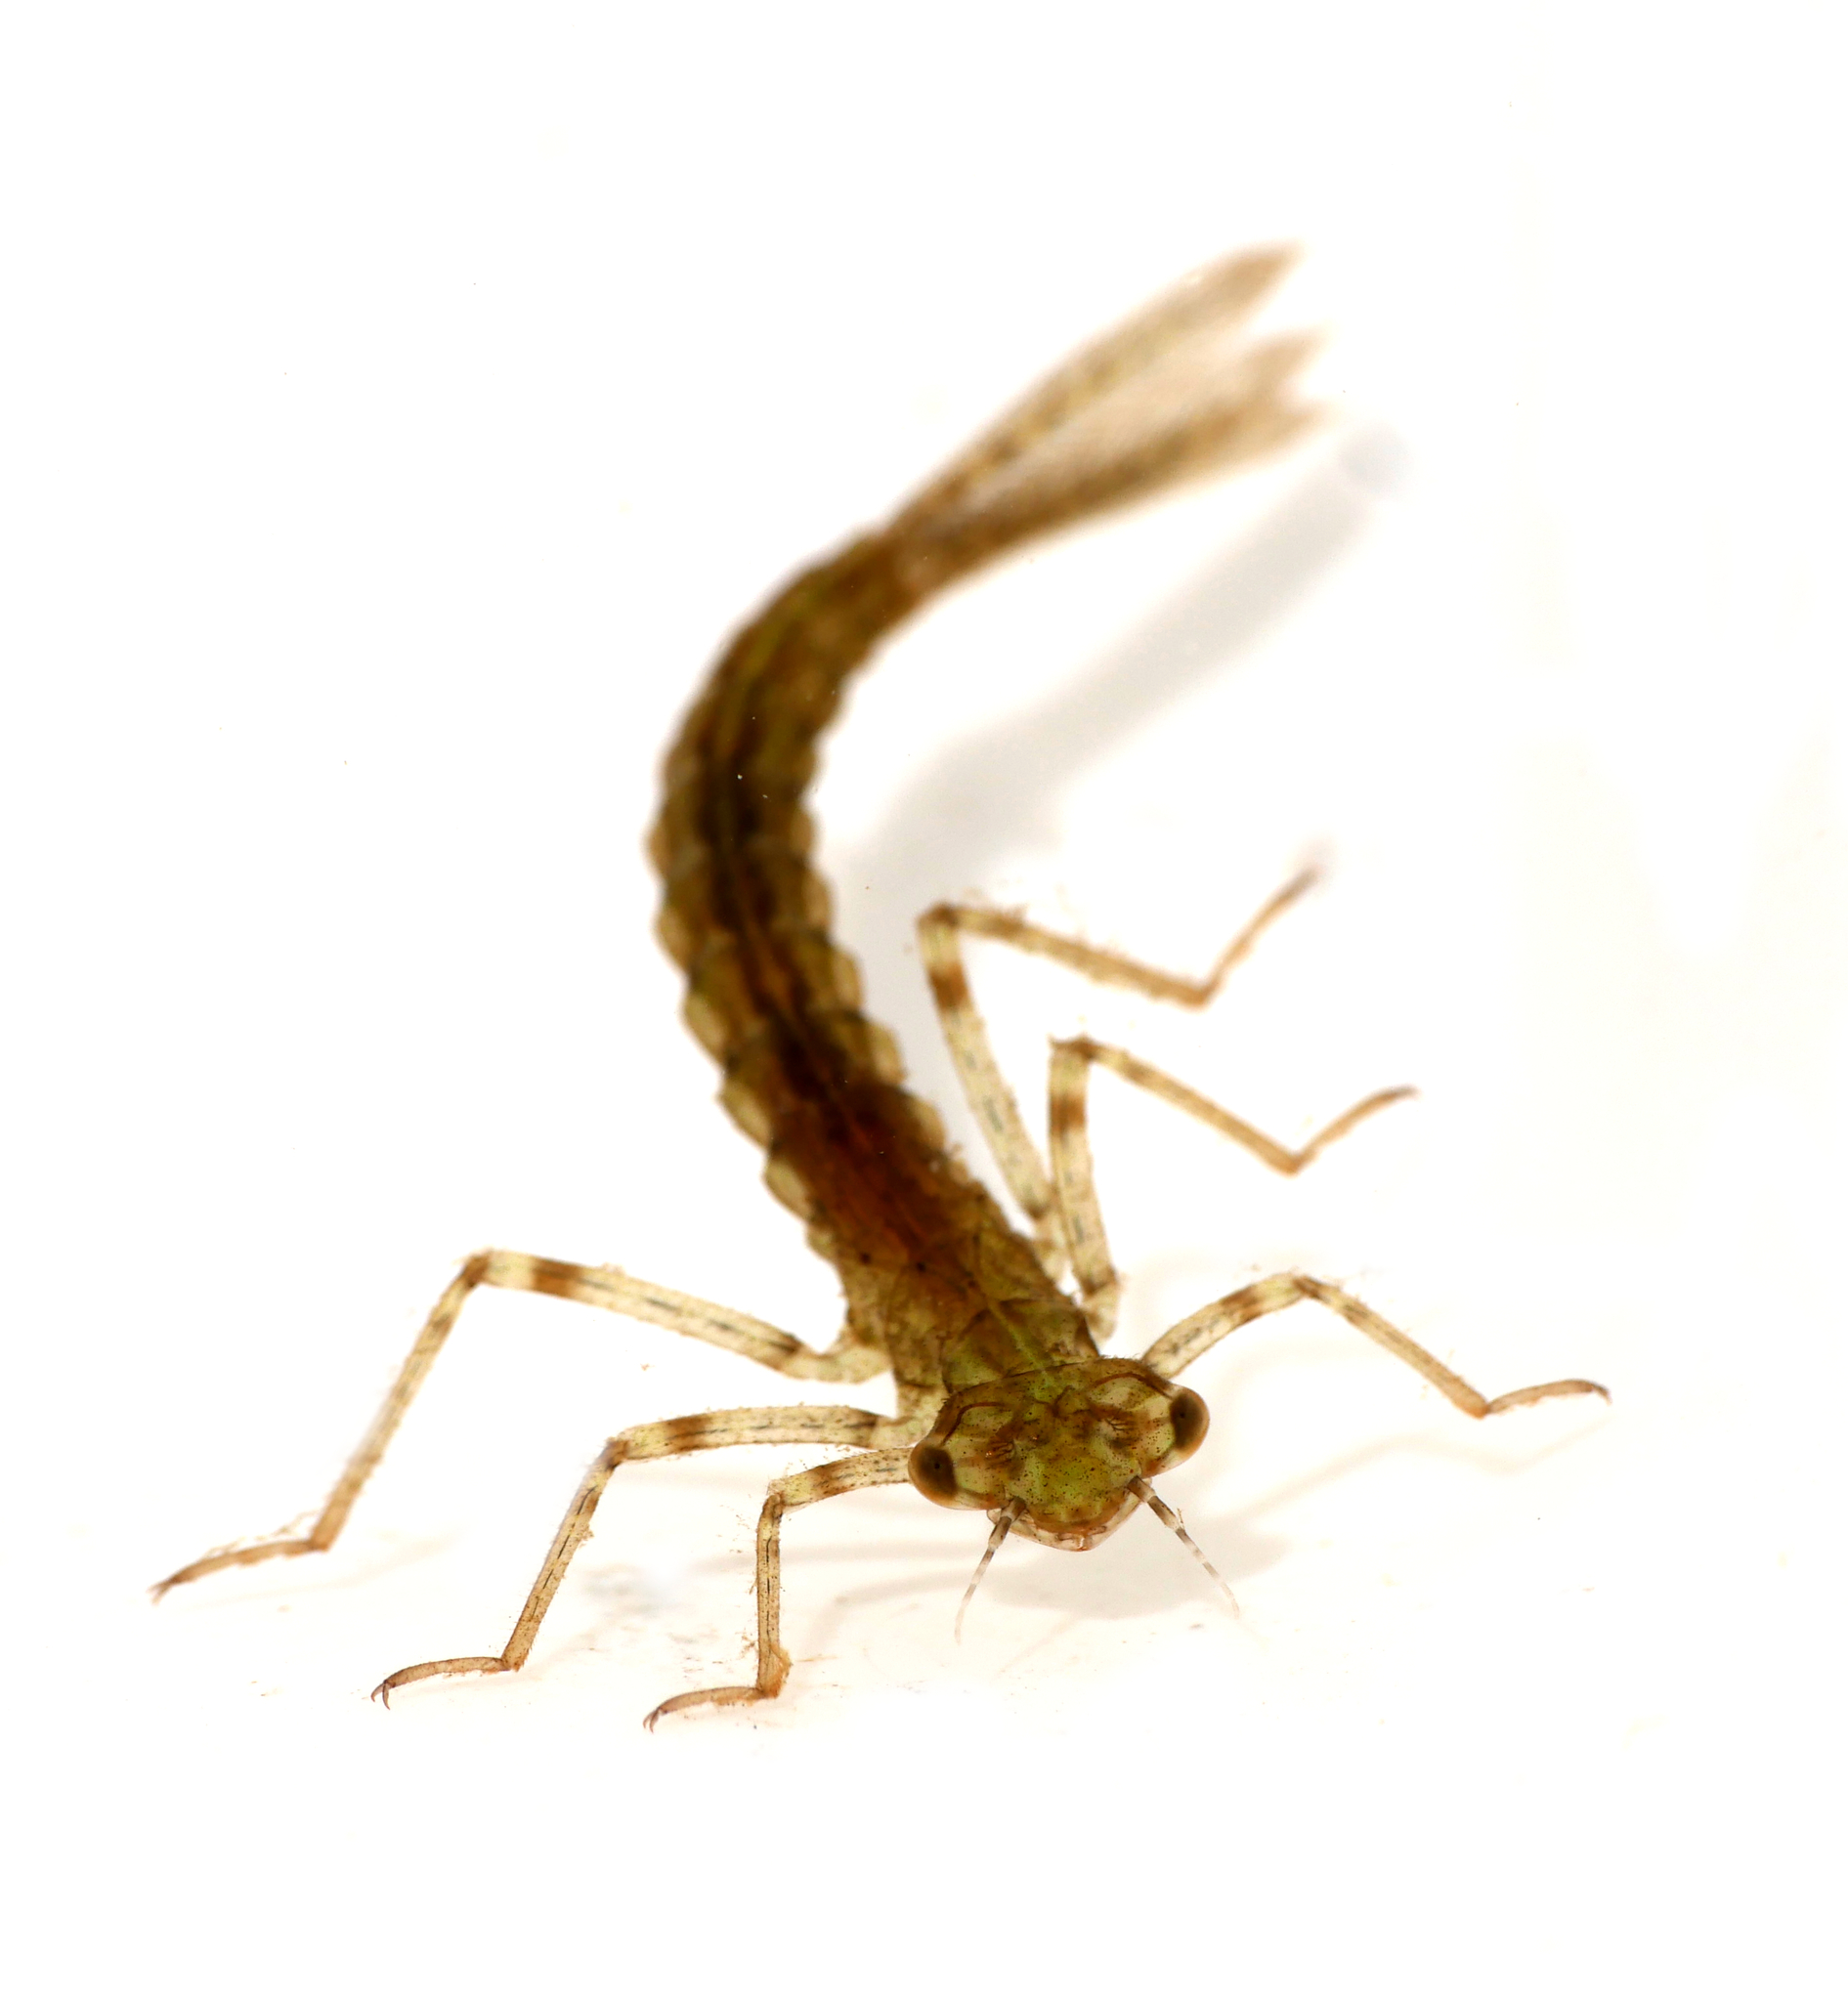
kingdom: Animalia
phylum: Arthropoda
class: Insecta
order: Odonata
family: Coenagrionidae
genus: Ischnura
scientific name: Ischnura elegans
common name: Blue-tailed damselfly
